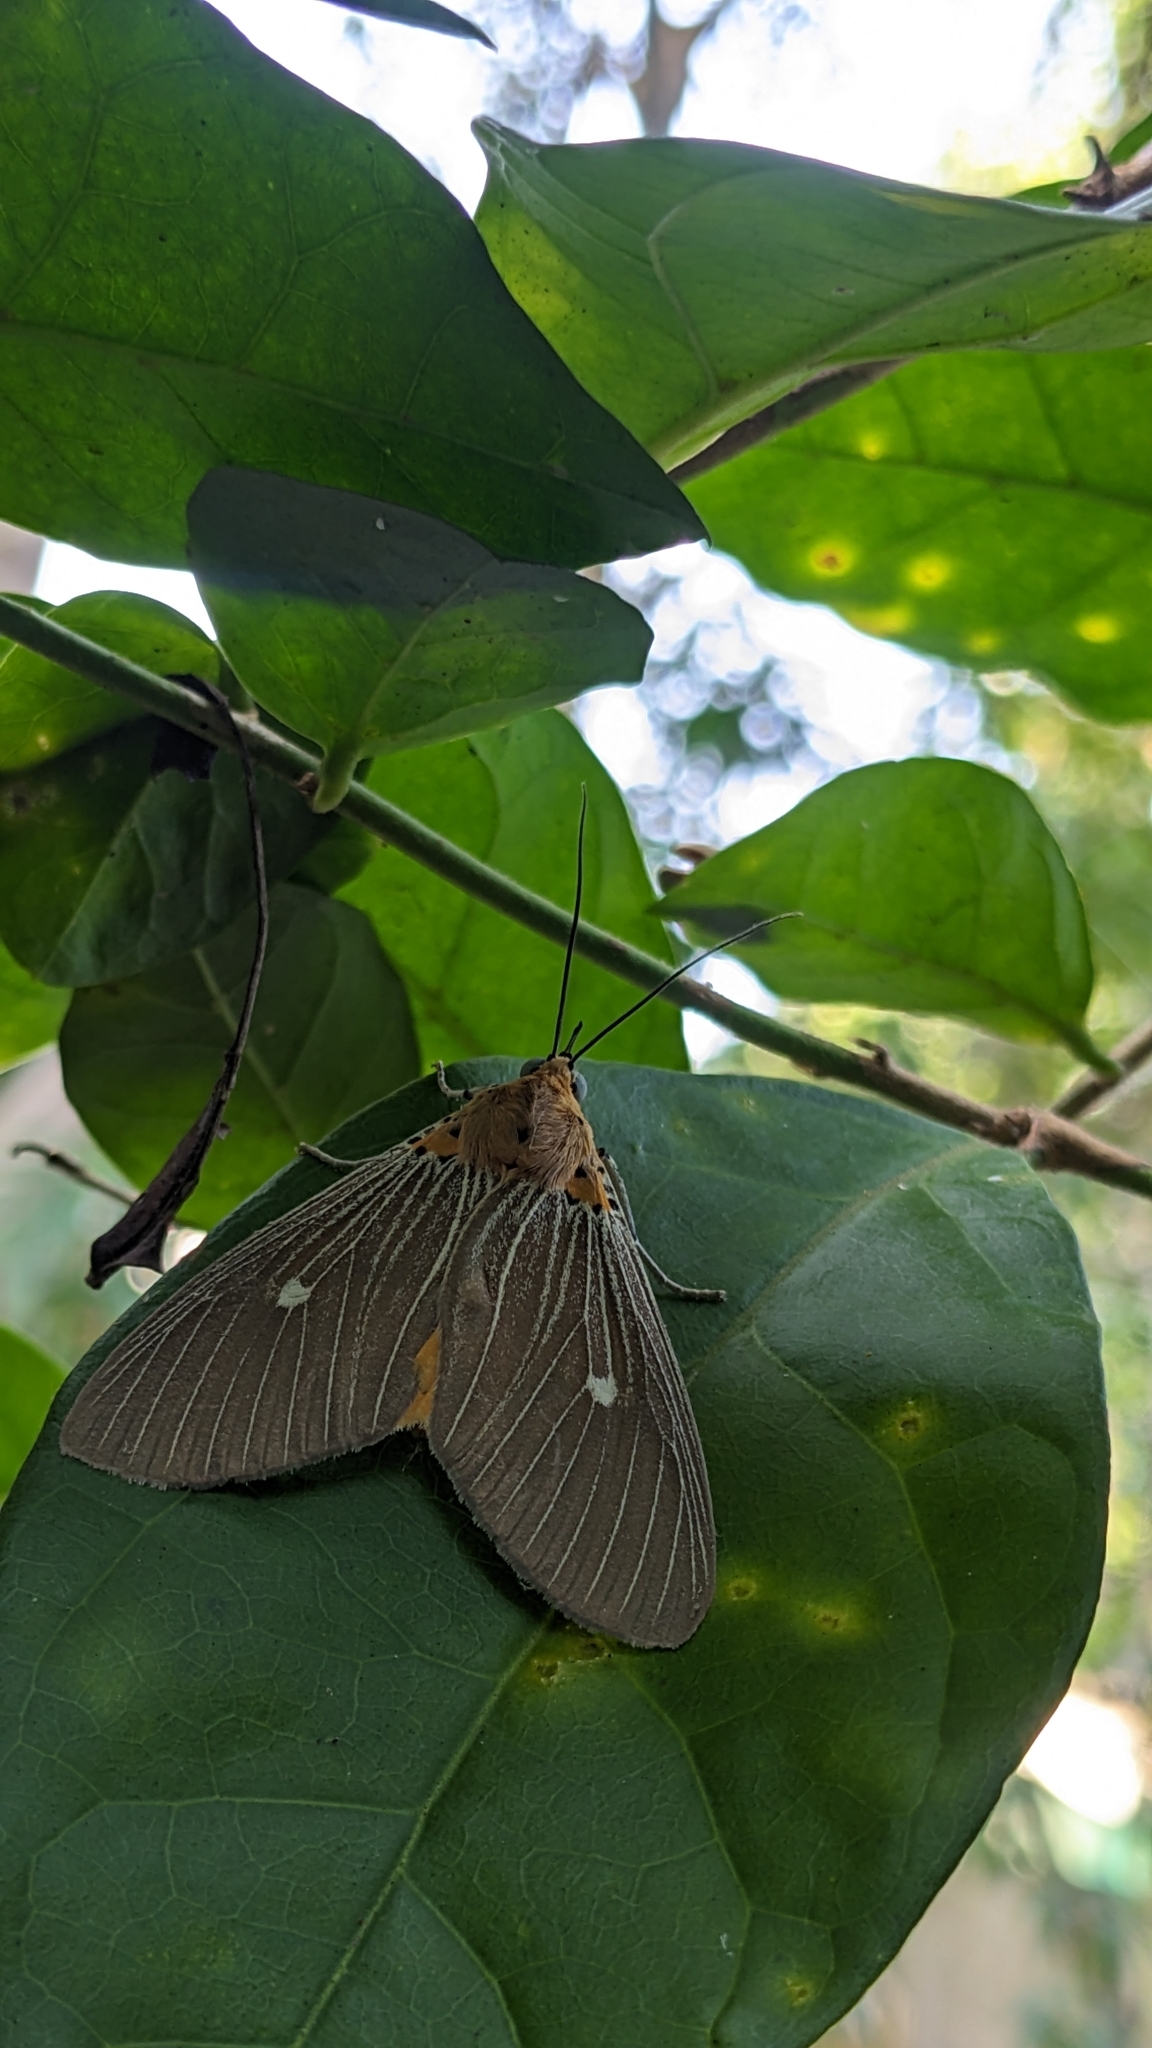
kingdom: Animalia
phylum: Arthropoda
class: Insecta
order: Lepidoptera
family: Erebidae
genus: Asota
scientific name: Asota caricae
